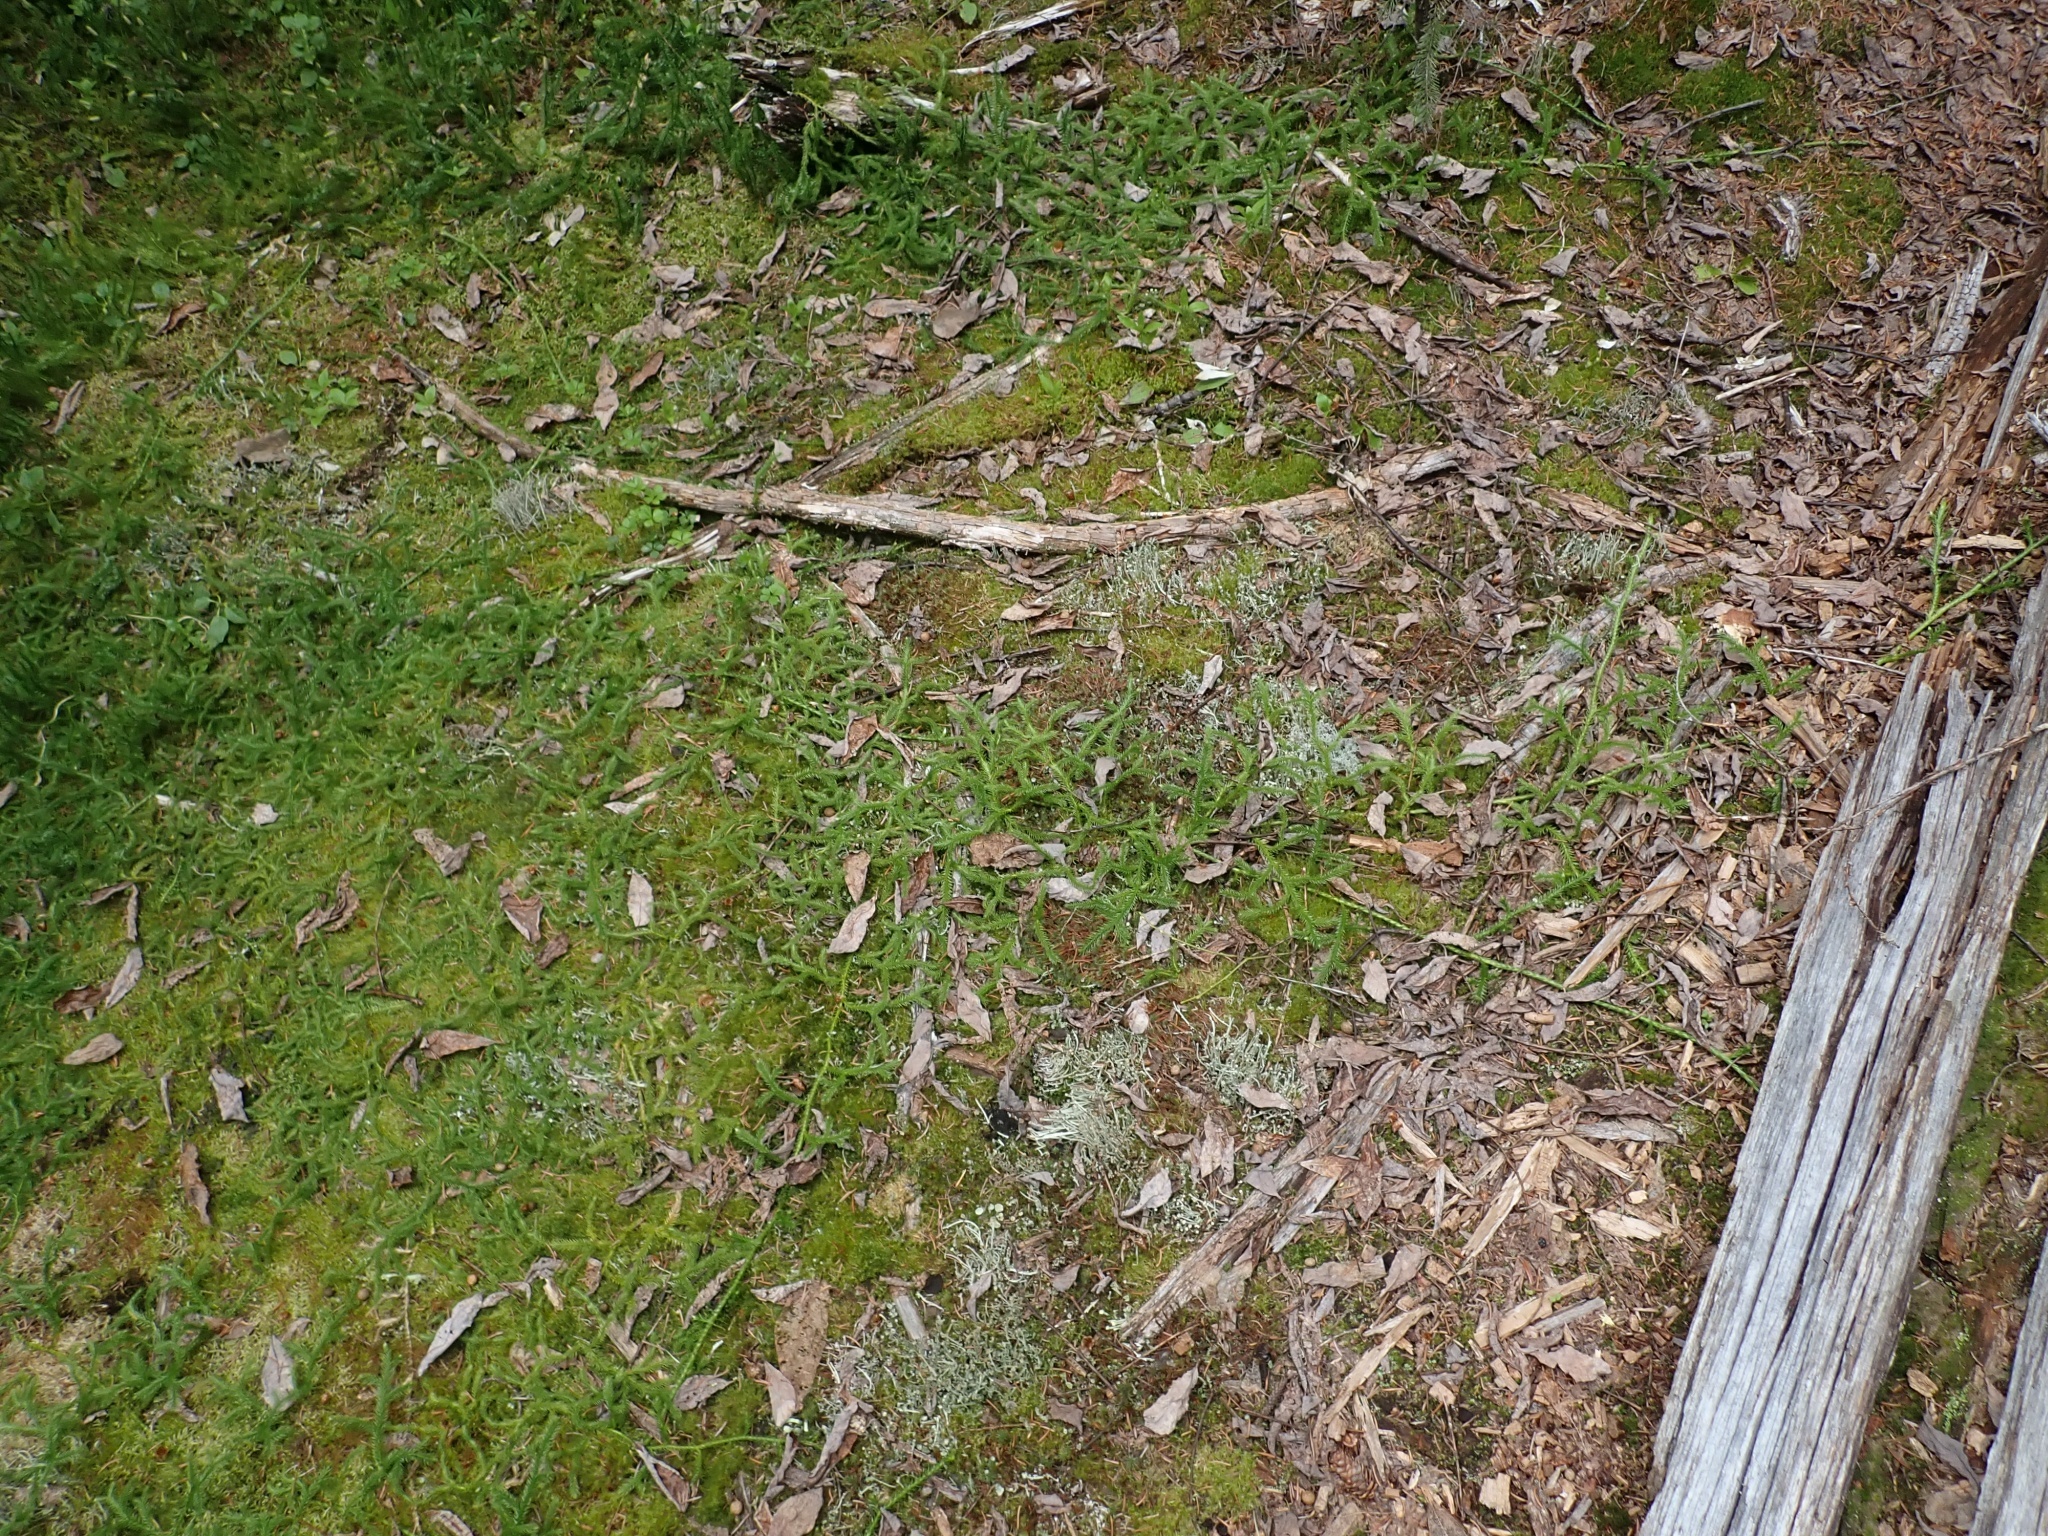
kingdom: Plantae
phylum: Tracheophyta
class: Lycopodiopsida
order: Lycopodiales
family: Lycopodiaceae
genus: Lycopodium
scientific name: Lycopodium clavatum
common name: Stag's-horn clubmoss
